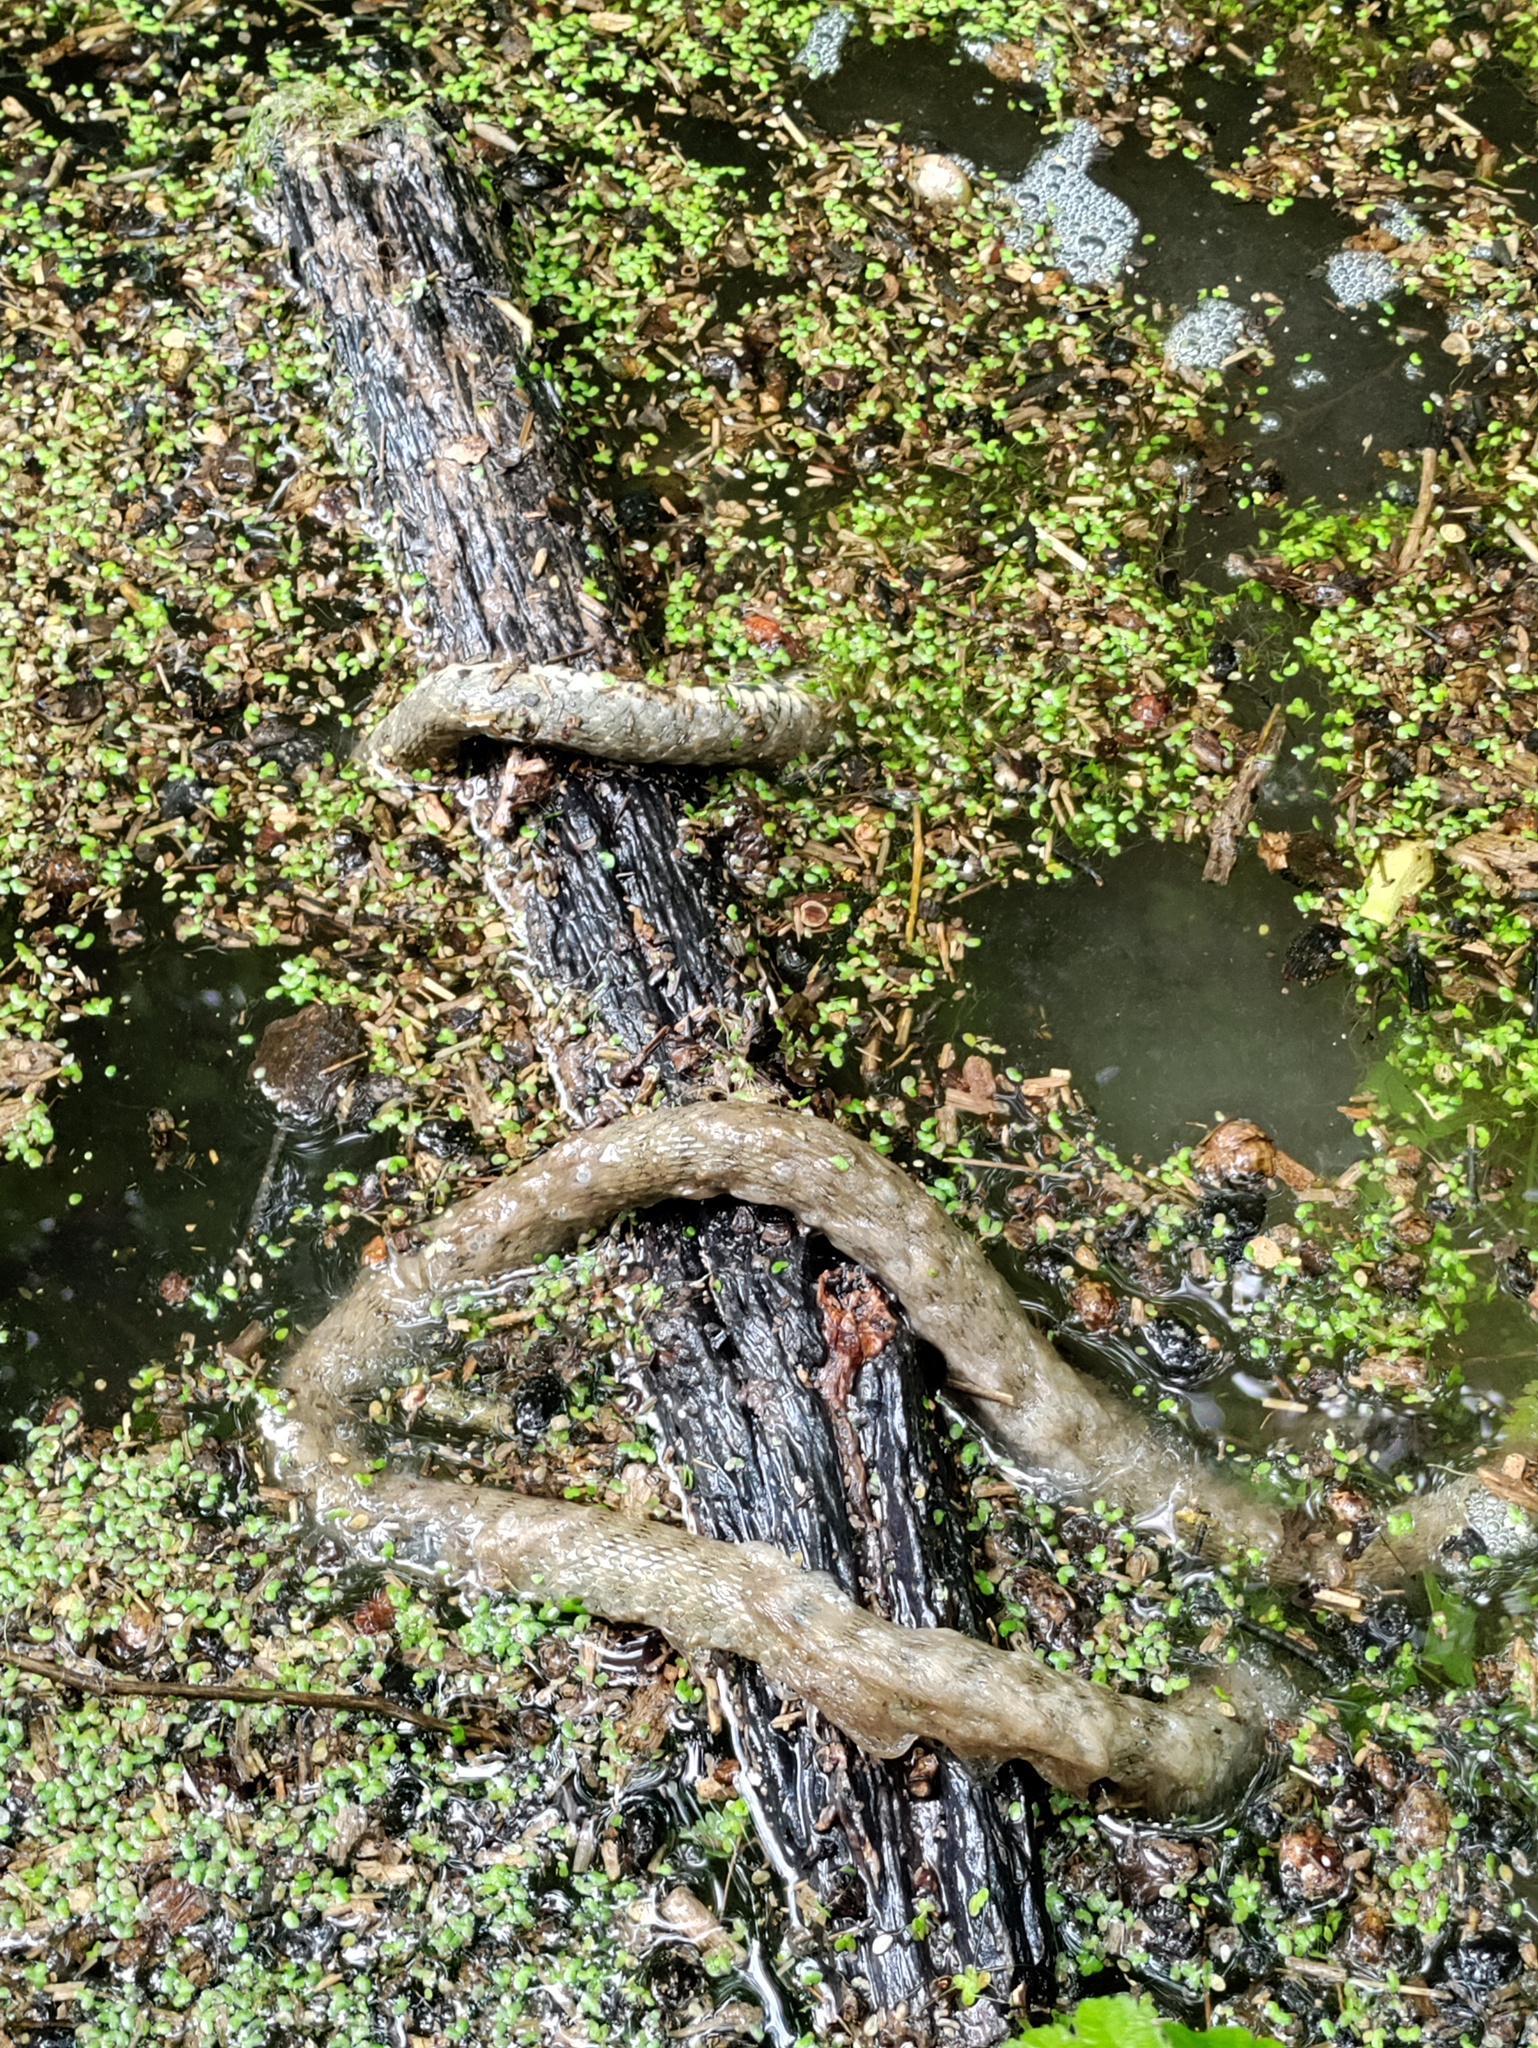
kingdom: Animalia
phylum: Chordata
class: Squamata
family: Colubridae
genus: Natrix
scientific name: Natrix tessellata
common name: Dice snake
